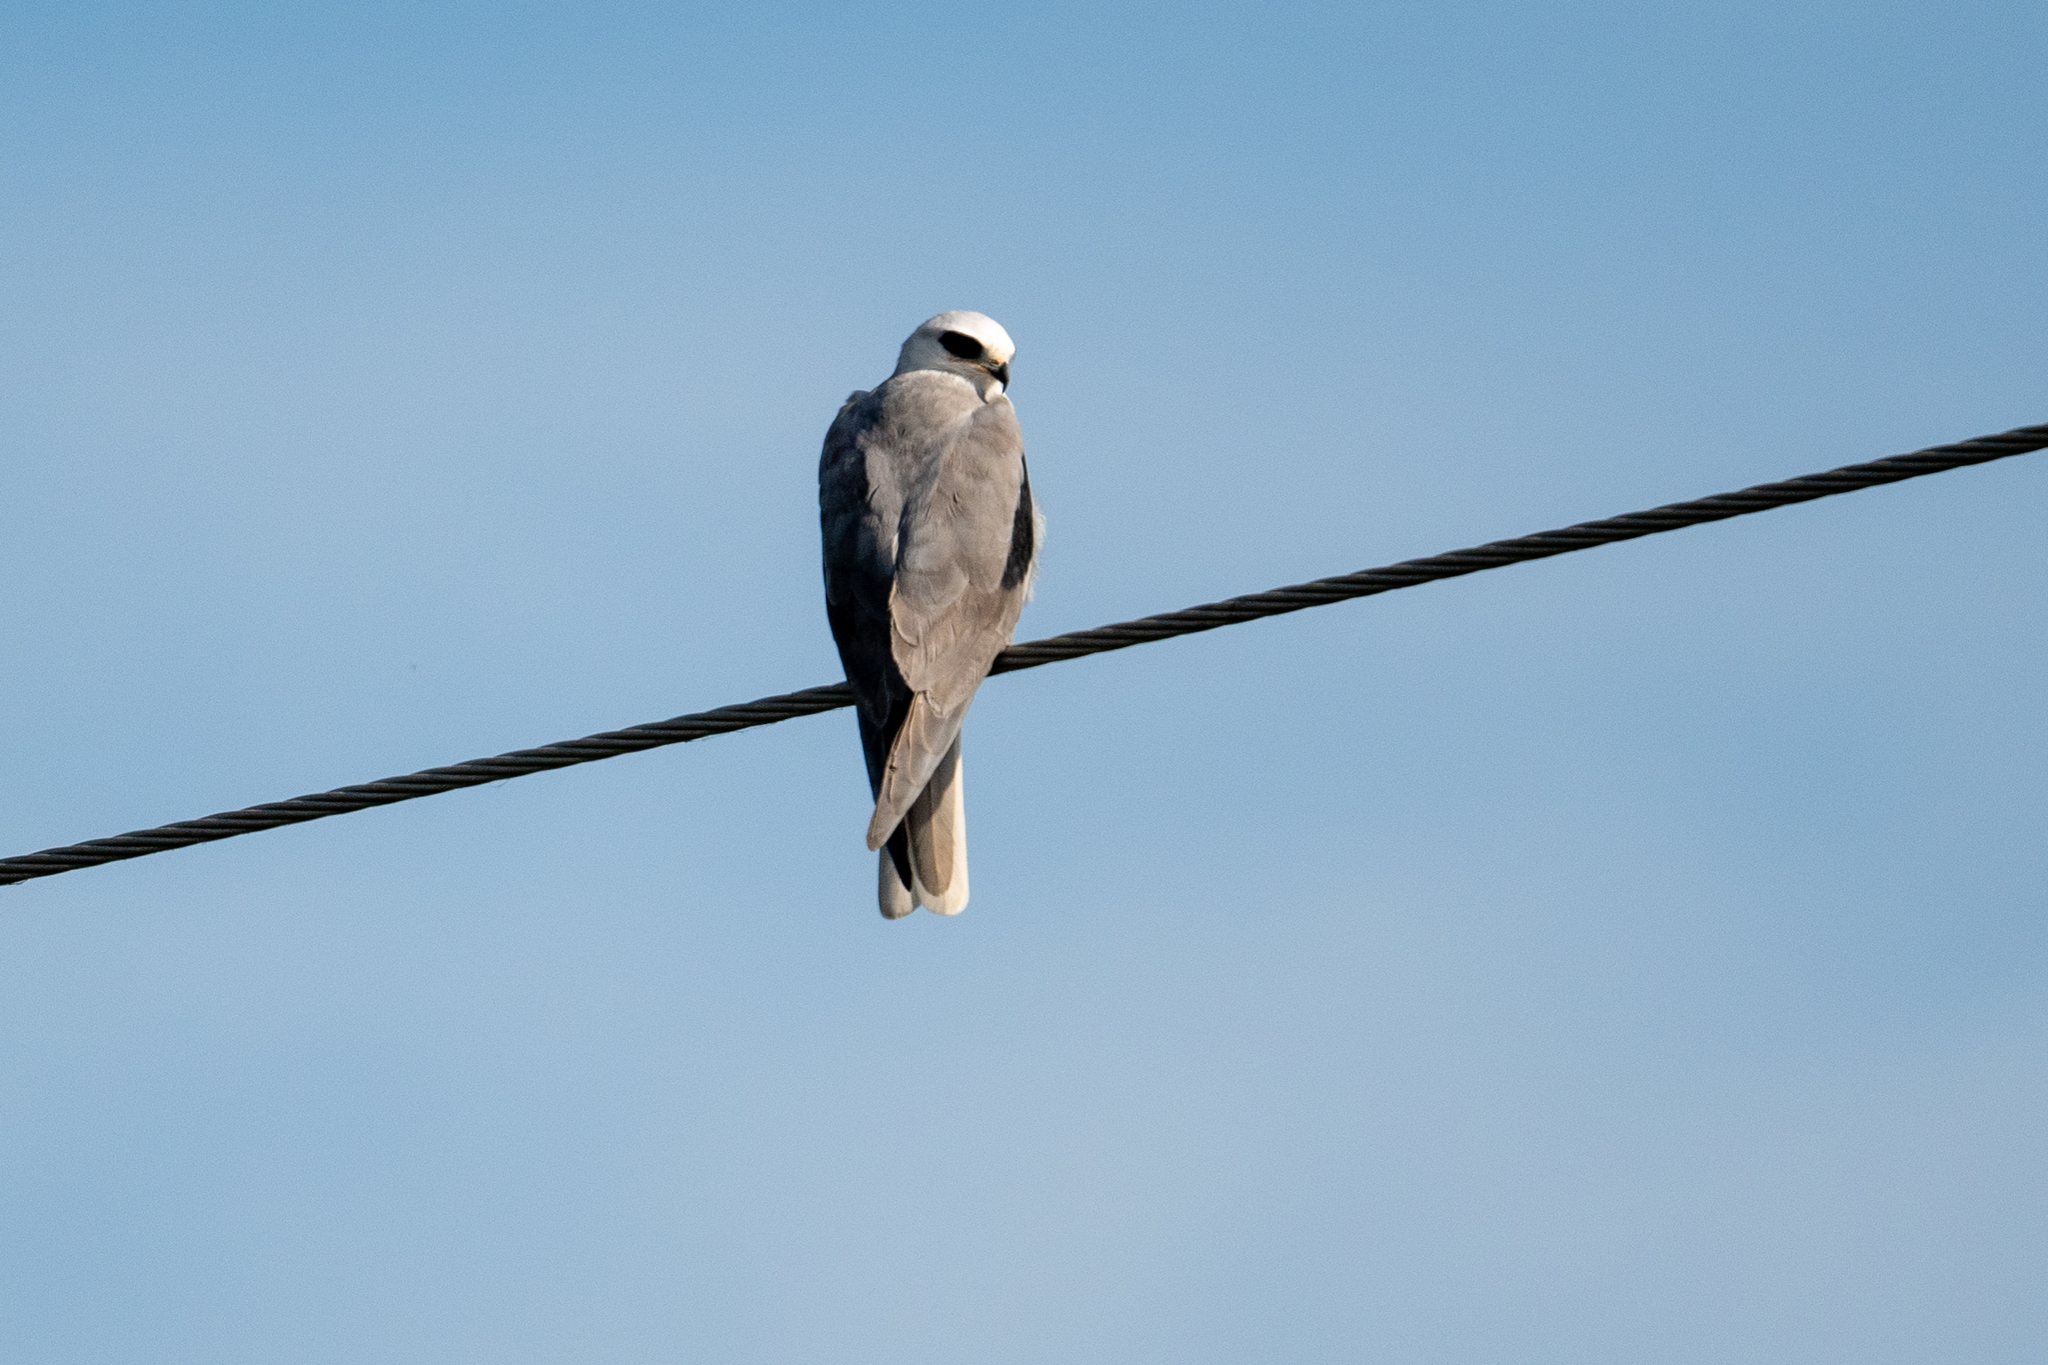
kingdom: Animalia
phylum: Chordata
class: Aves
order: Accipitriformes
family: Accipitridae
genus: Elanus
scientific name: Elanus leucurus
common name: White-tailed kite
